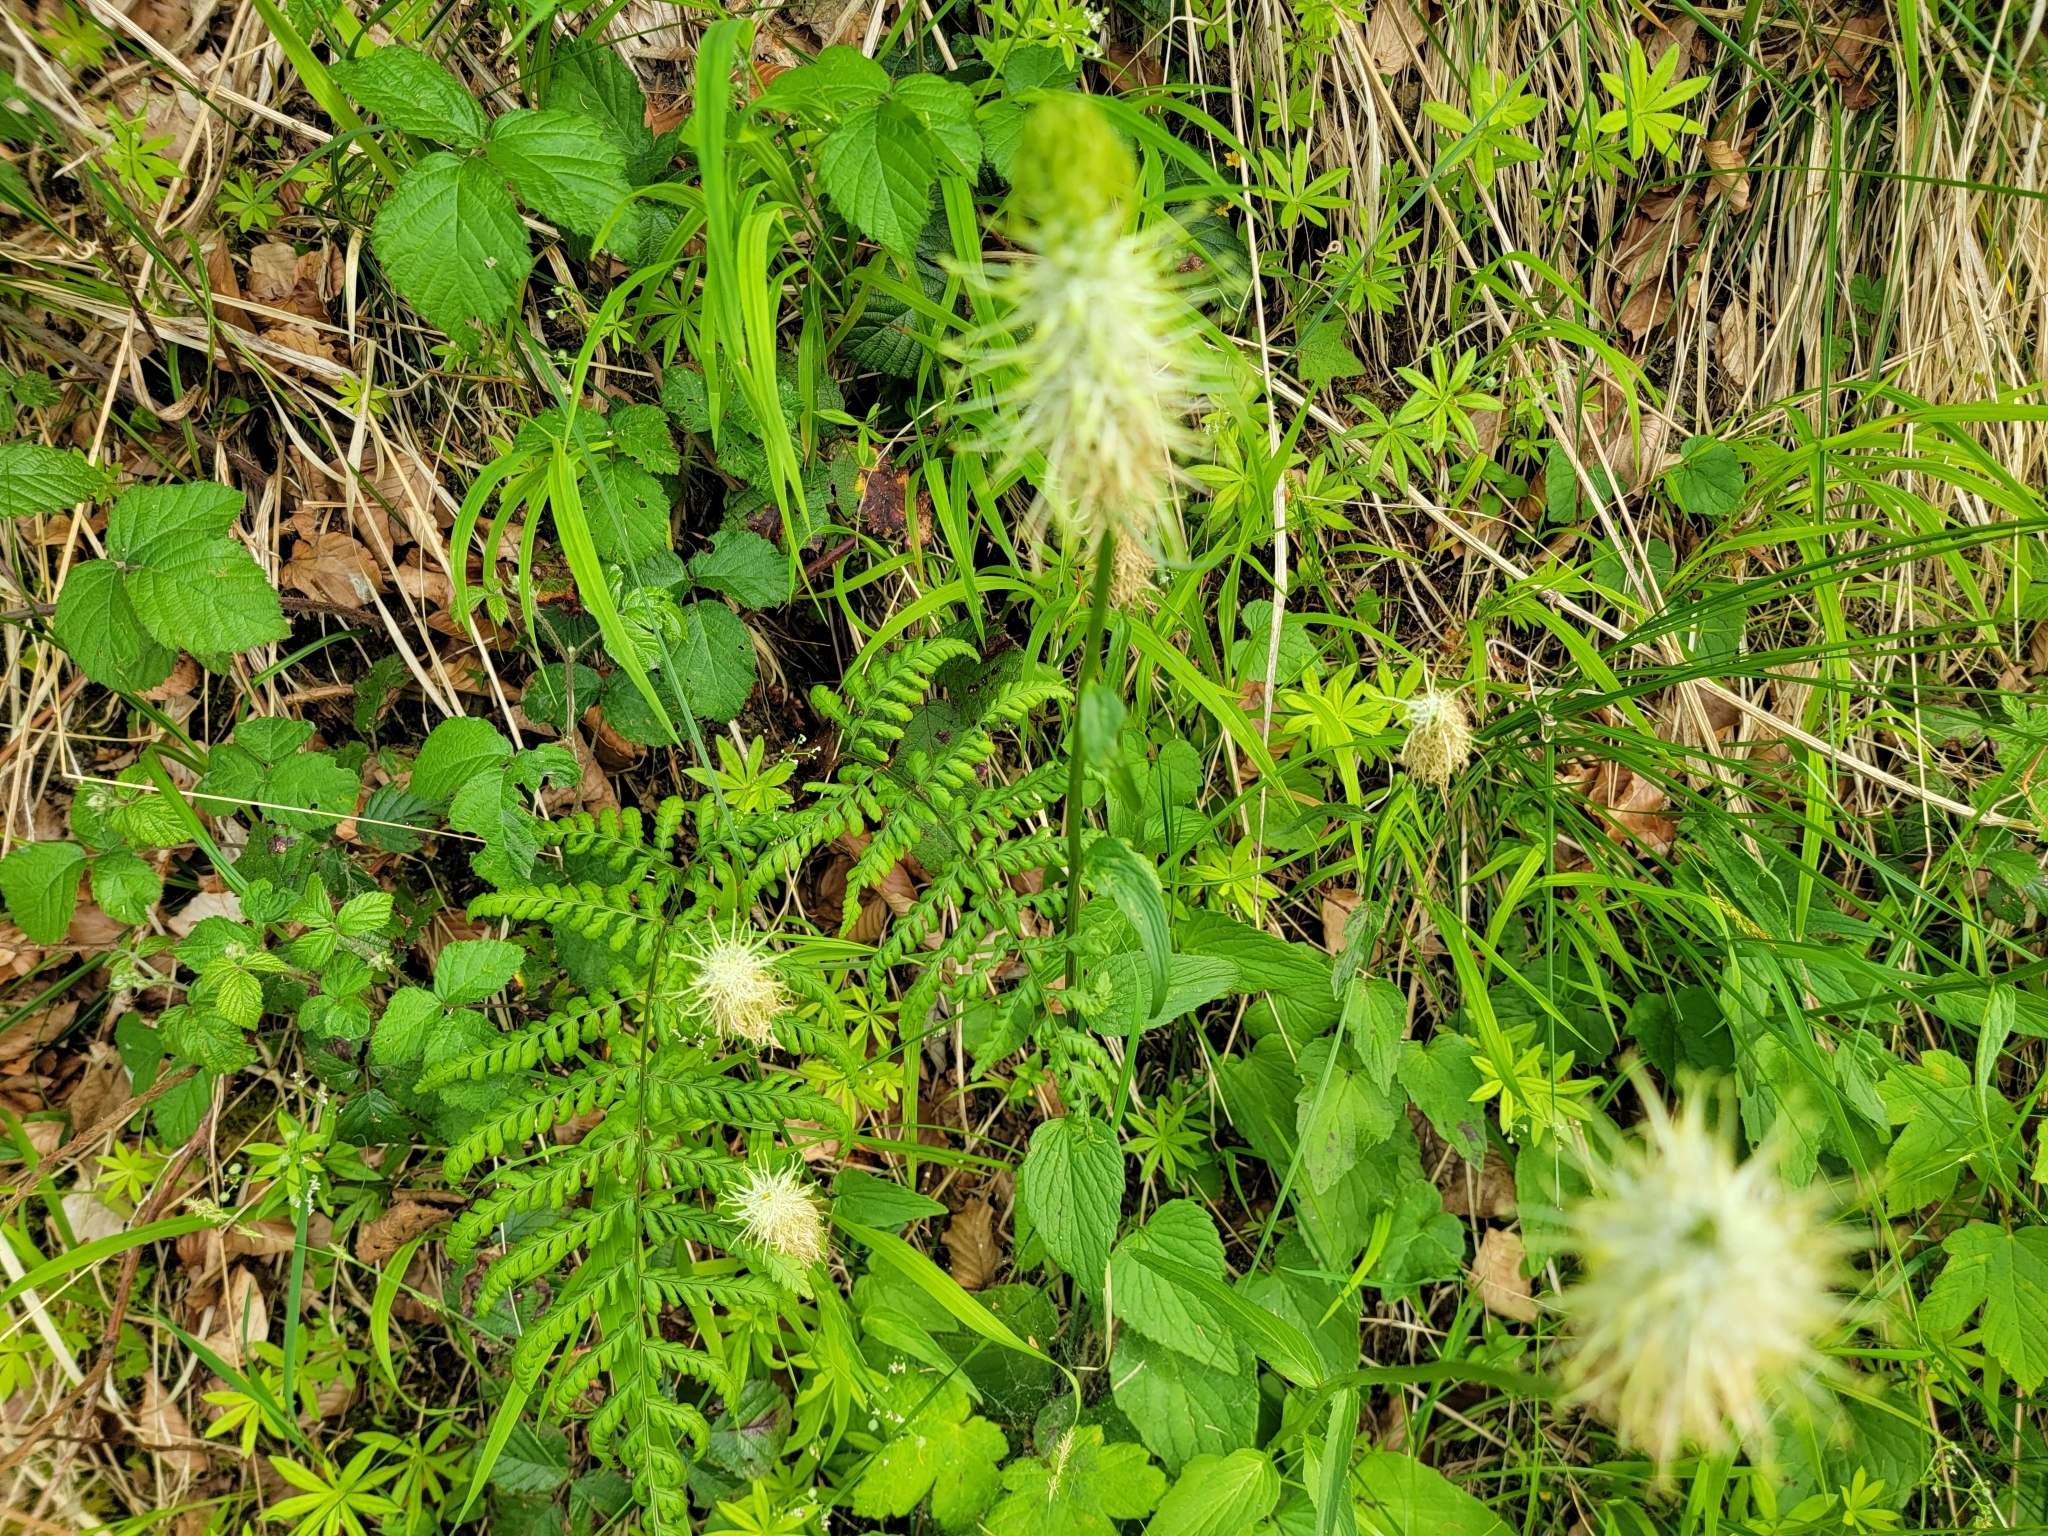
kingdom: Plantae
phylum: Tracheophyta
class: Magnoliopsida
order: Asterales
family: Campanulaceae
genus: Phyteuma
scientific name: Phyteuma spicatum
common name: Spiked rampion
